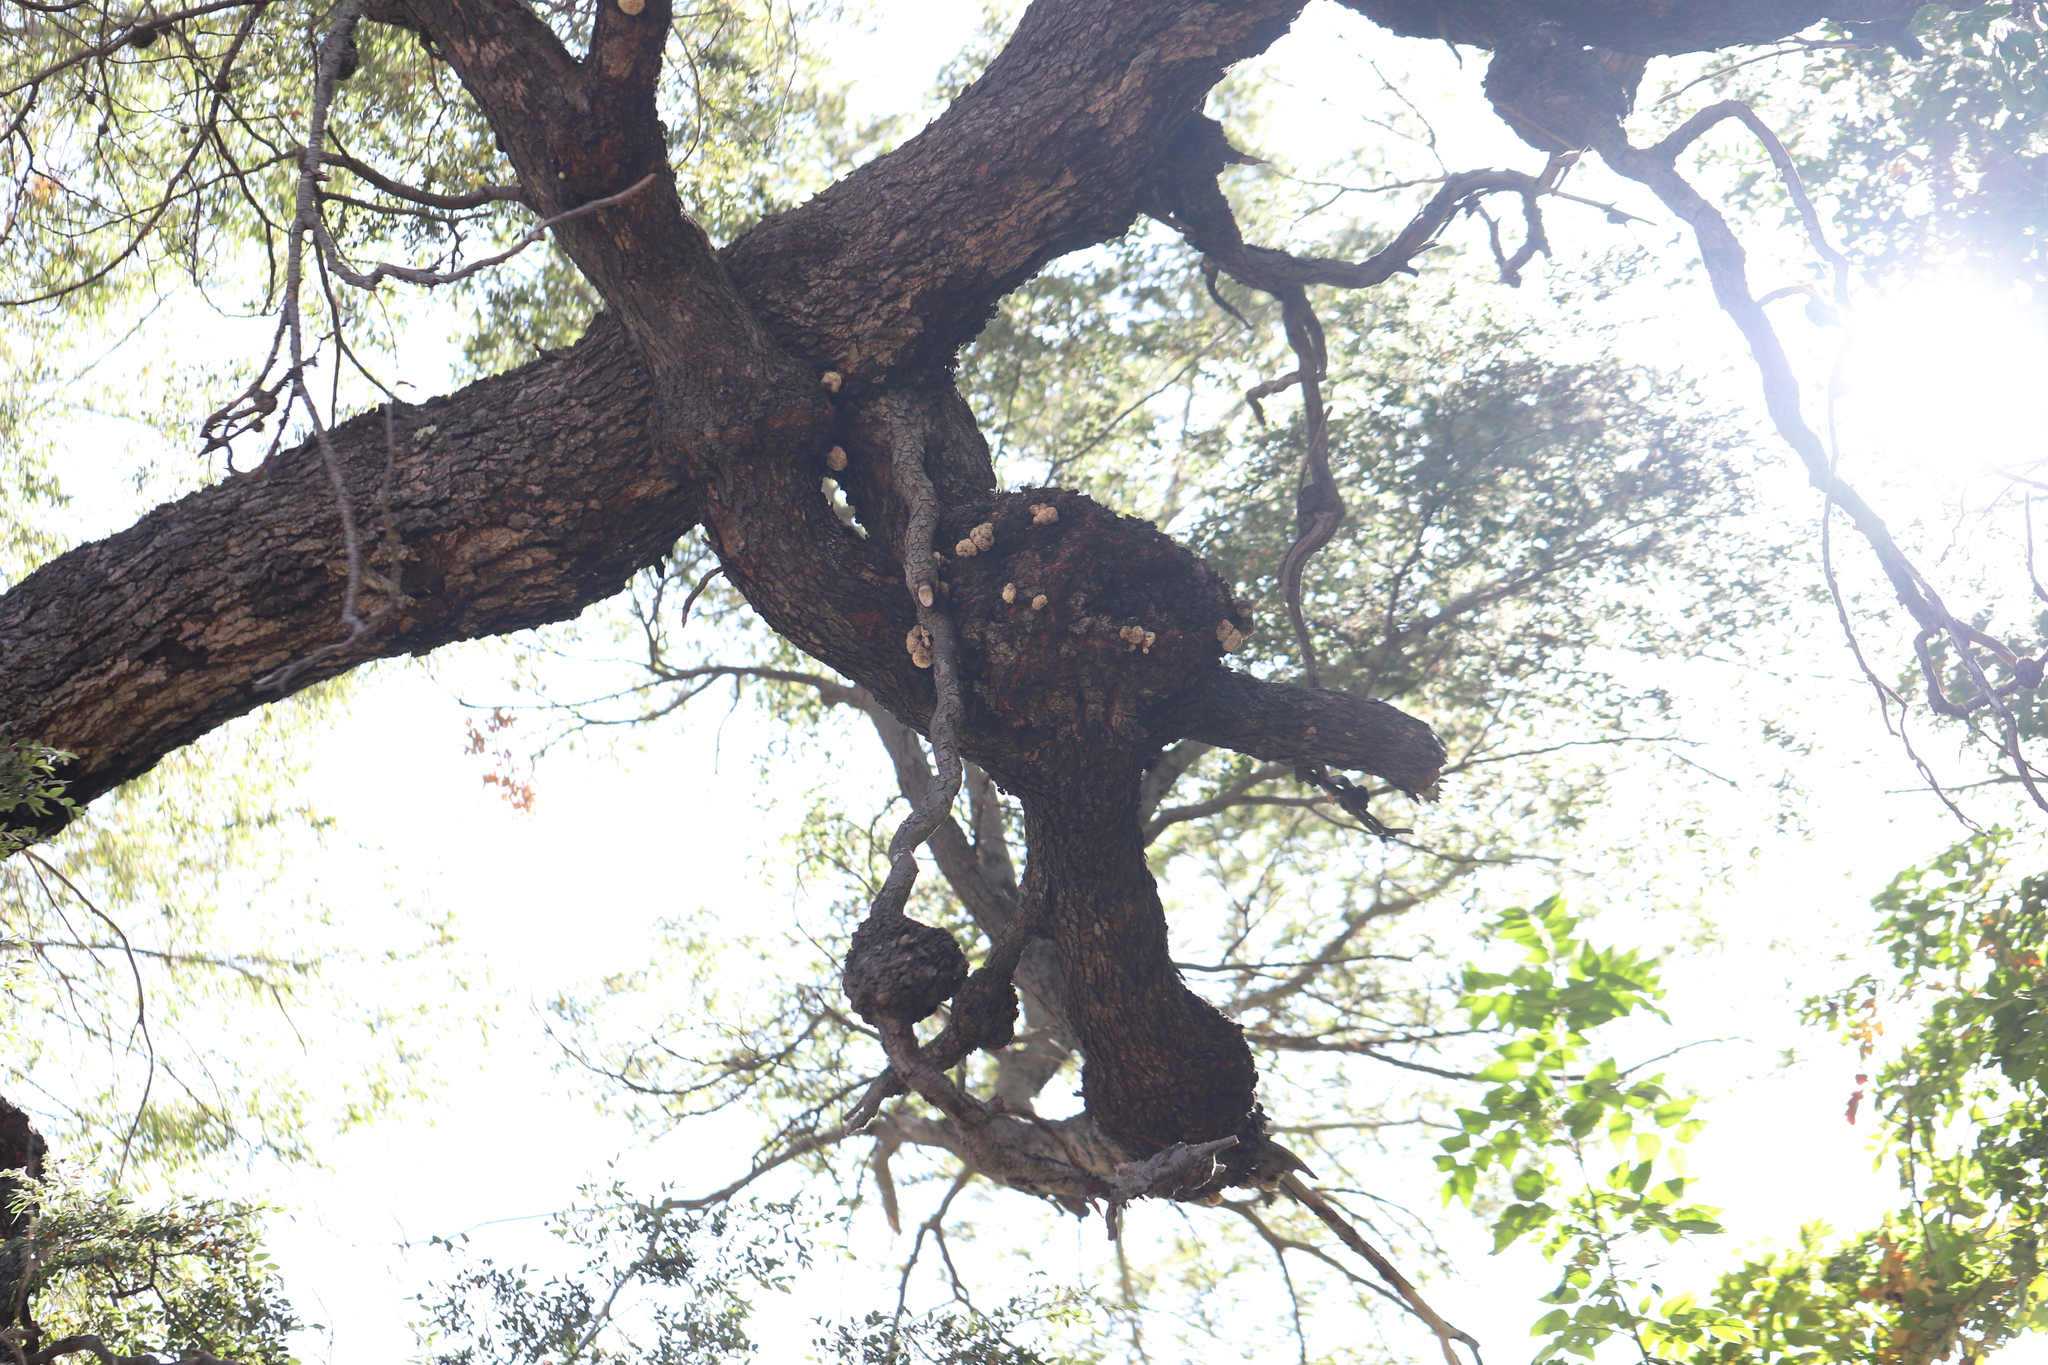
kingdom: Fungi
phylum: Ascomycota
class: Leotiomycetes
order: Cyttariales
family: Cyttariaceae
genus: Cyttaria
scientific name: Cyttaria hariotii
